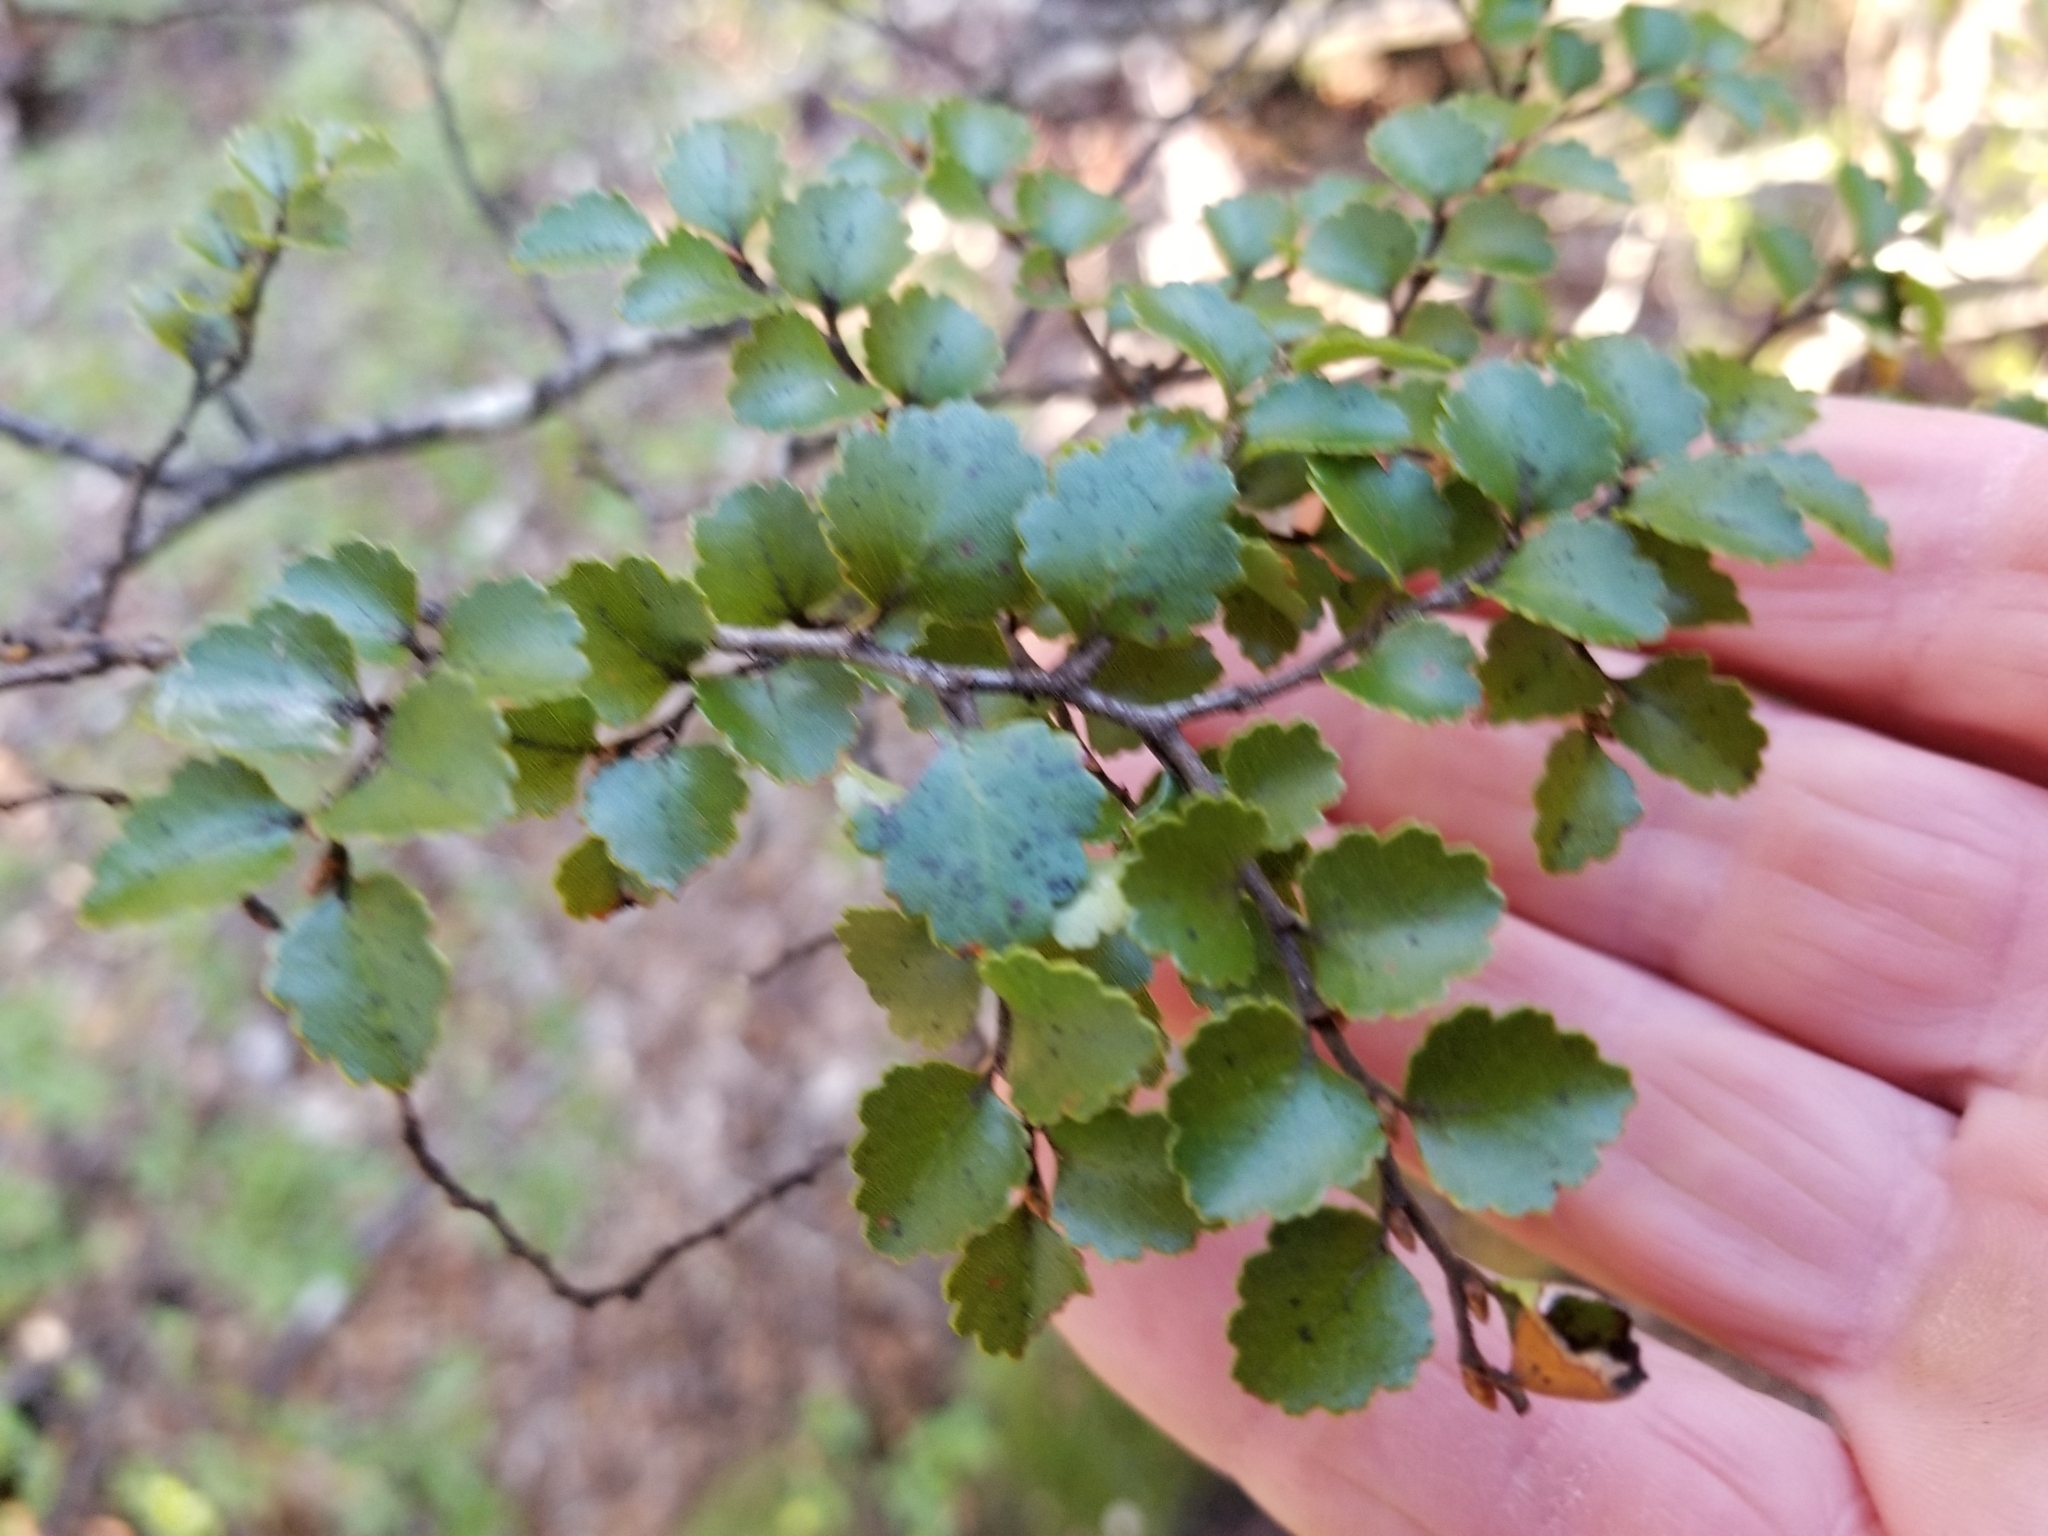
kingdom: Plantae
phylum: Tracheophyta
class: Magnoliopsida
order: Fagales
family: Nothofagaceae
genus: Nothofagus
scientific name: Nothofagus menziesii
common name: Silver beech
